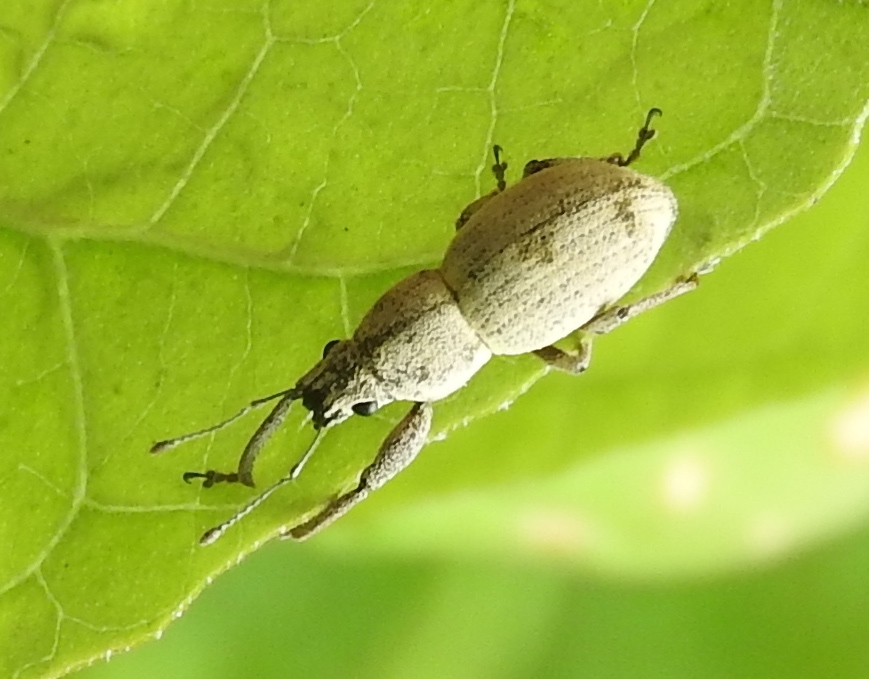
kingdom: Animalia
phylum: Arthropoda
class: Insecta
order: Coleoptera
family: Curculionidae
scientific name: Curculionidae
